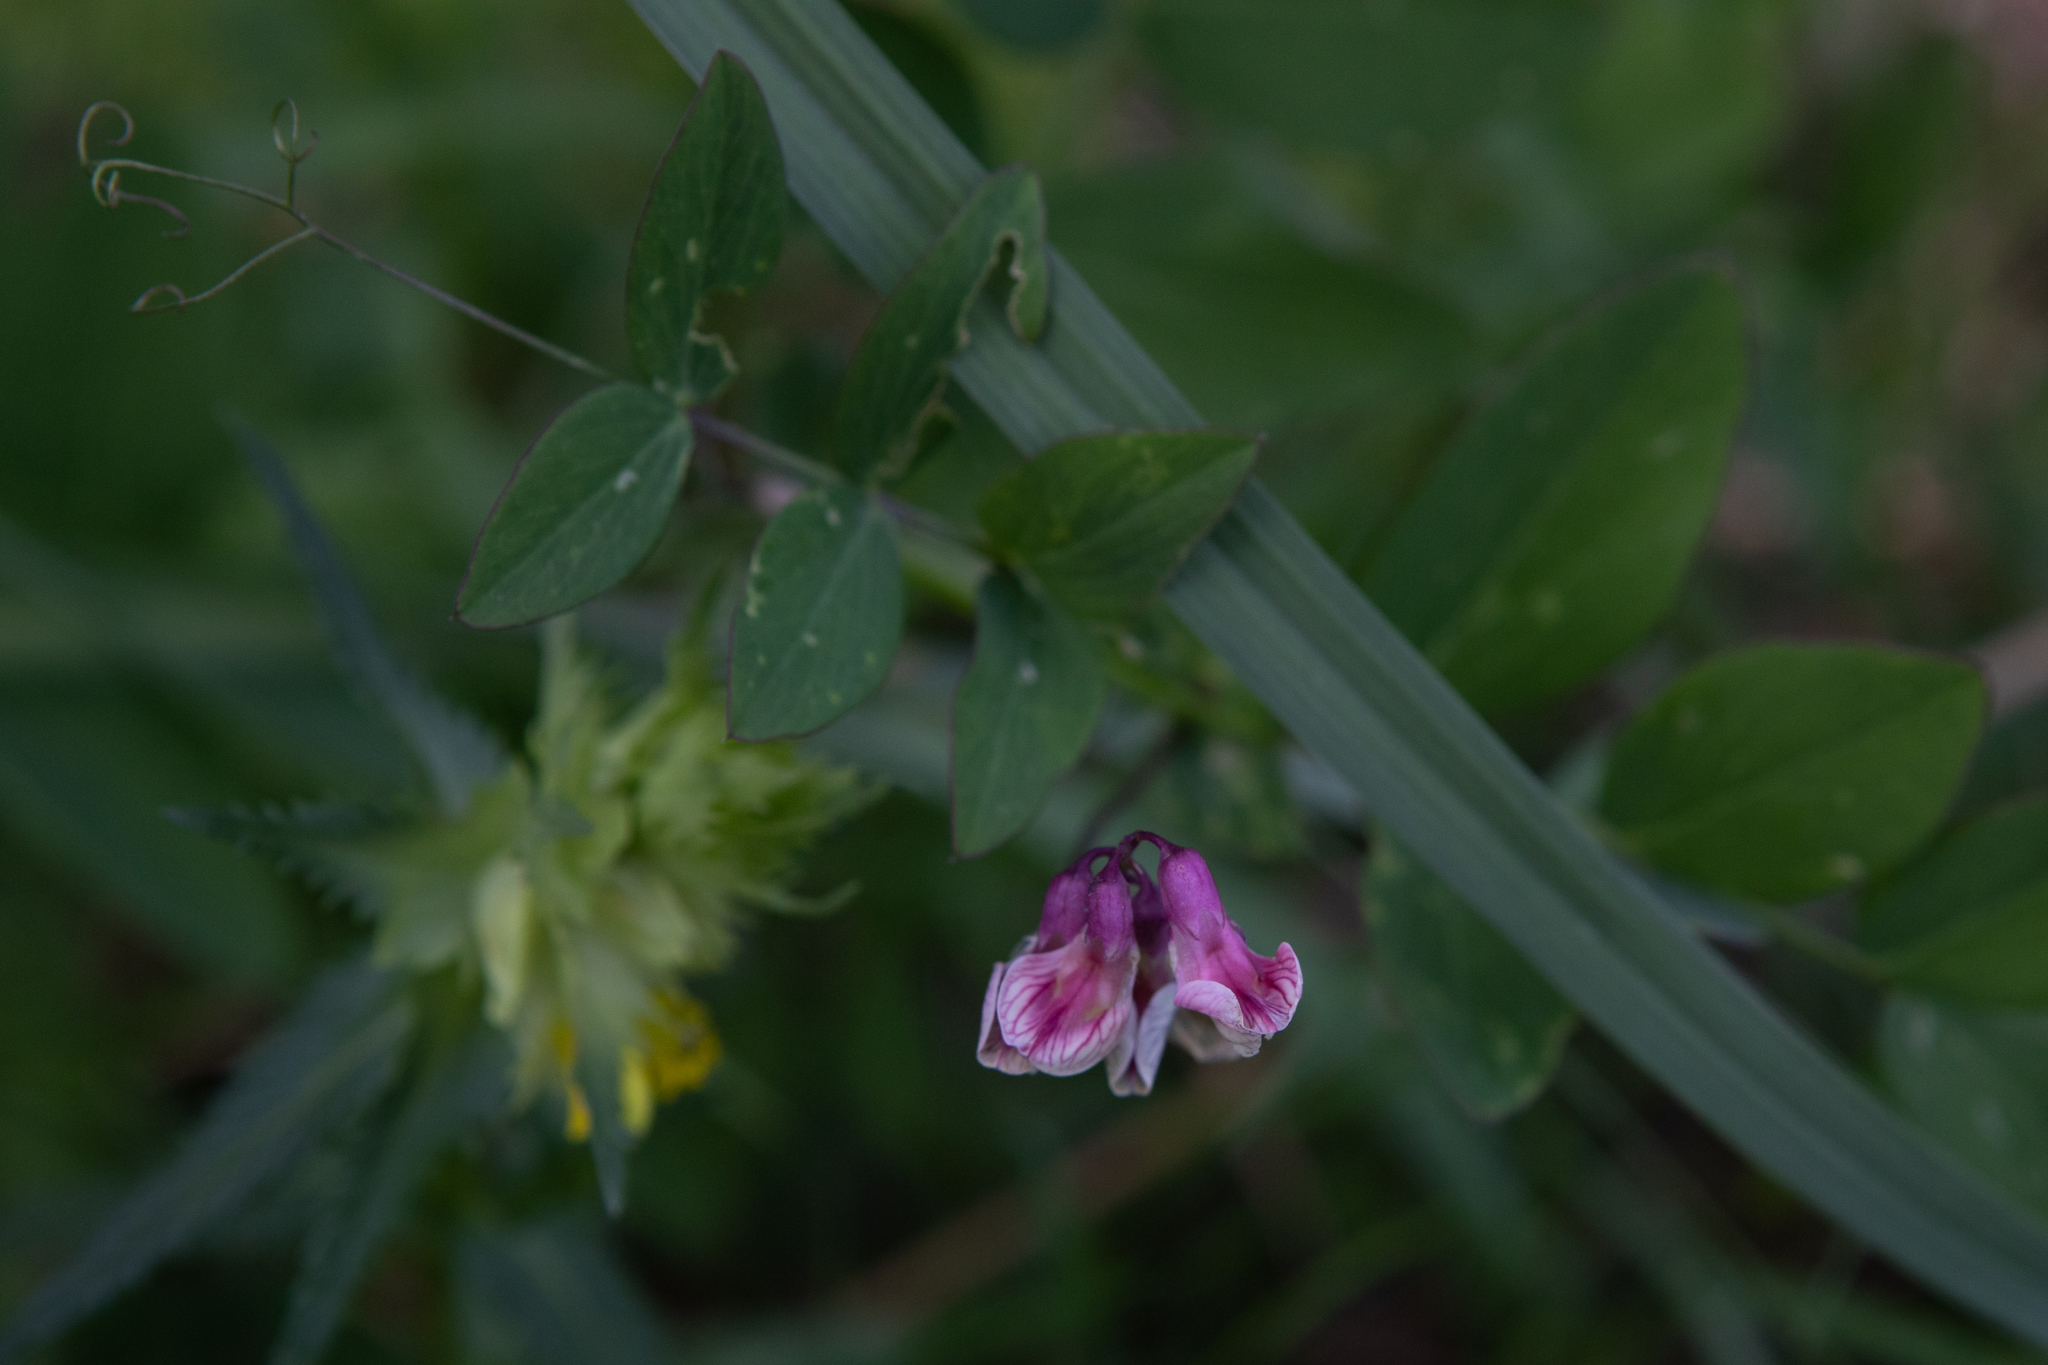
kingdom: Plantae
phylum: Tracheophyta
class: Magnoliopsida
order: Fabales
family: Fabaceae
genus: Lathyrus
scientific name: Lathyrus pisiformis
